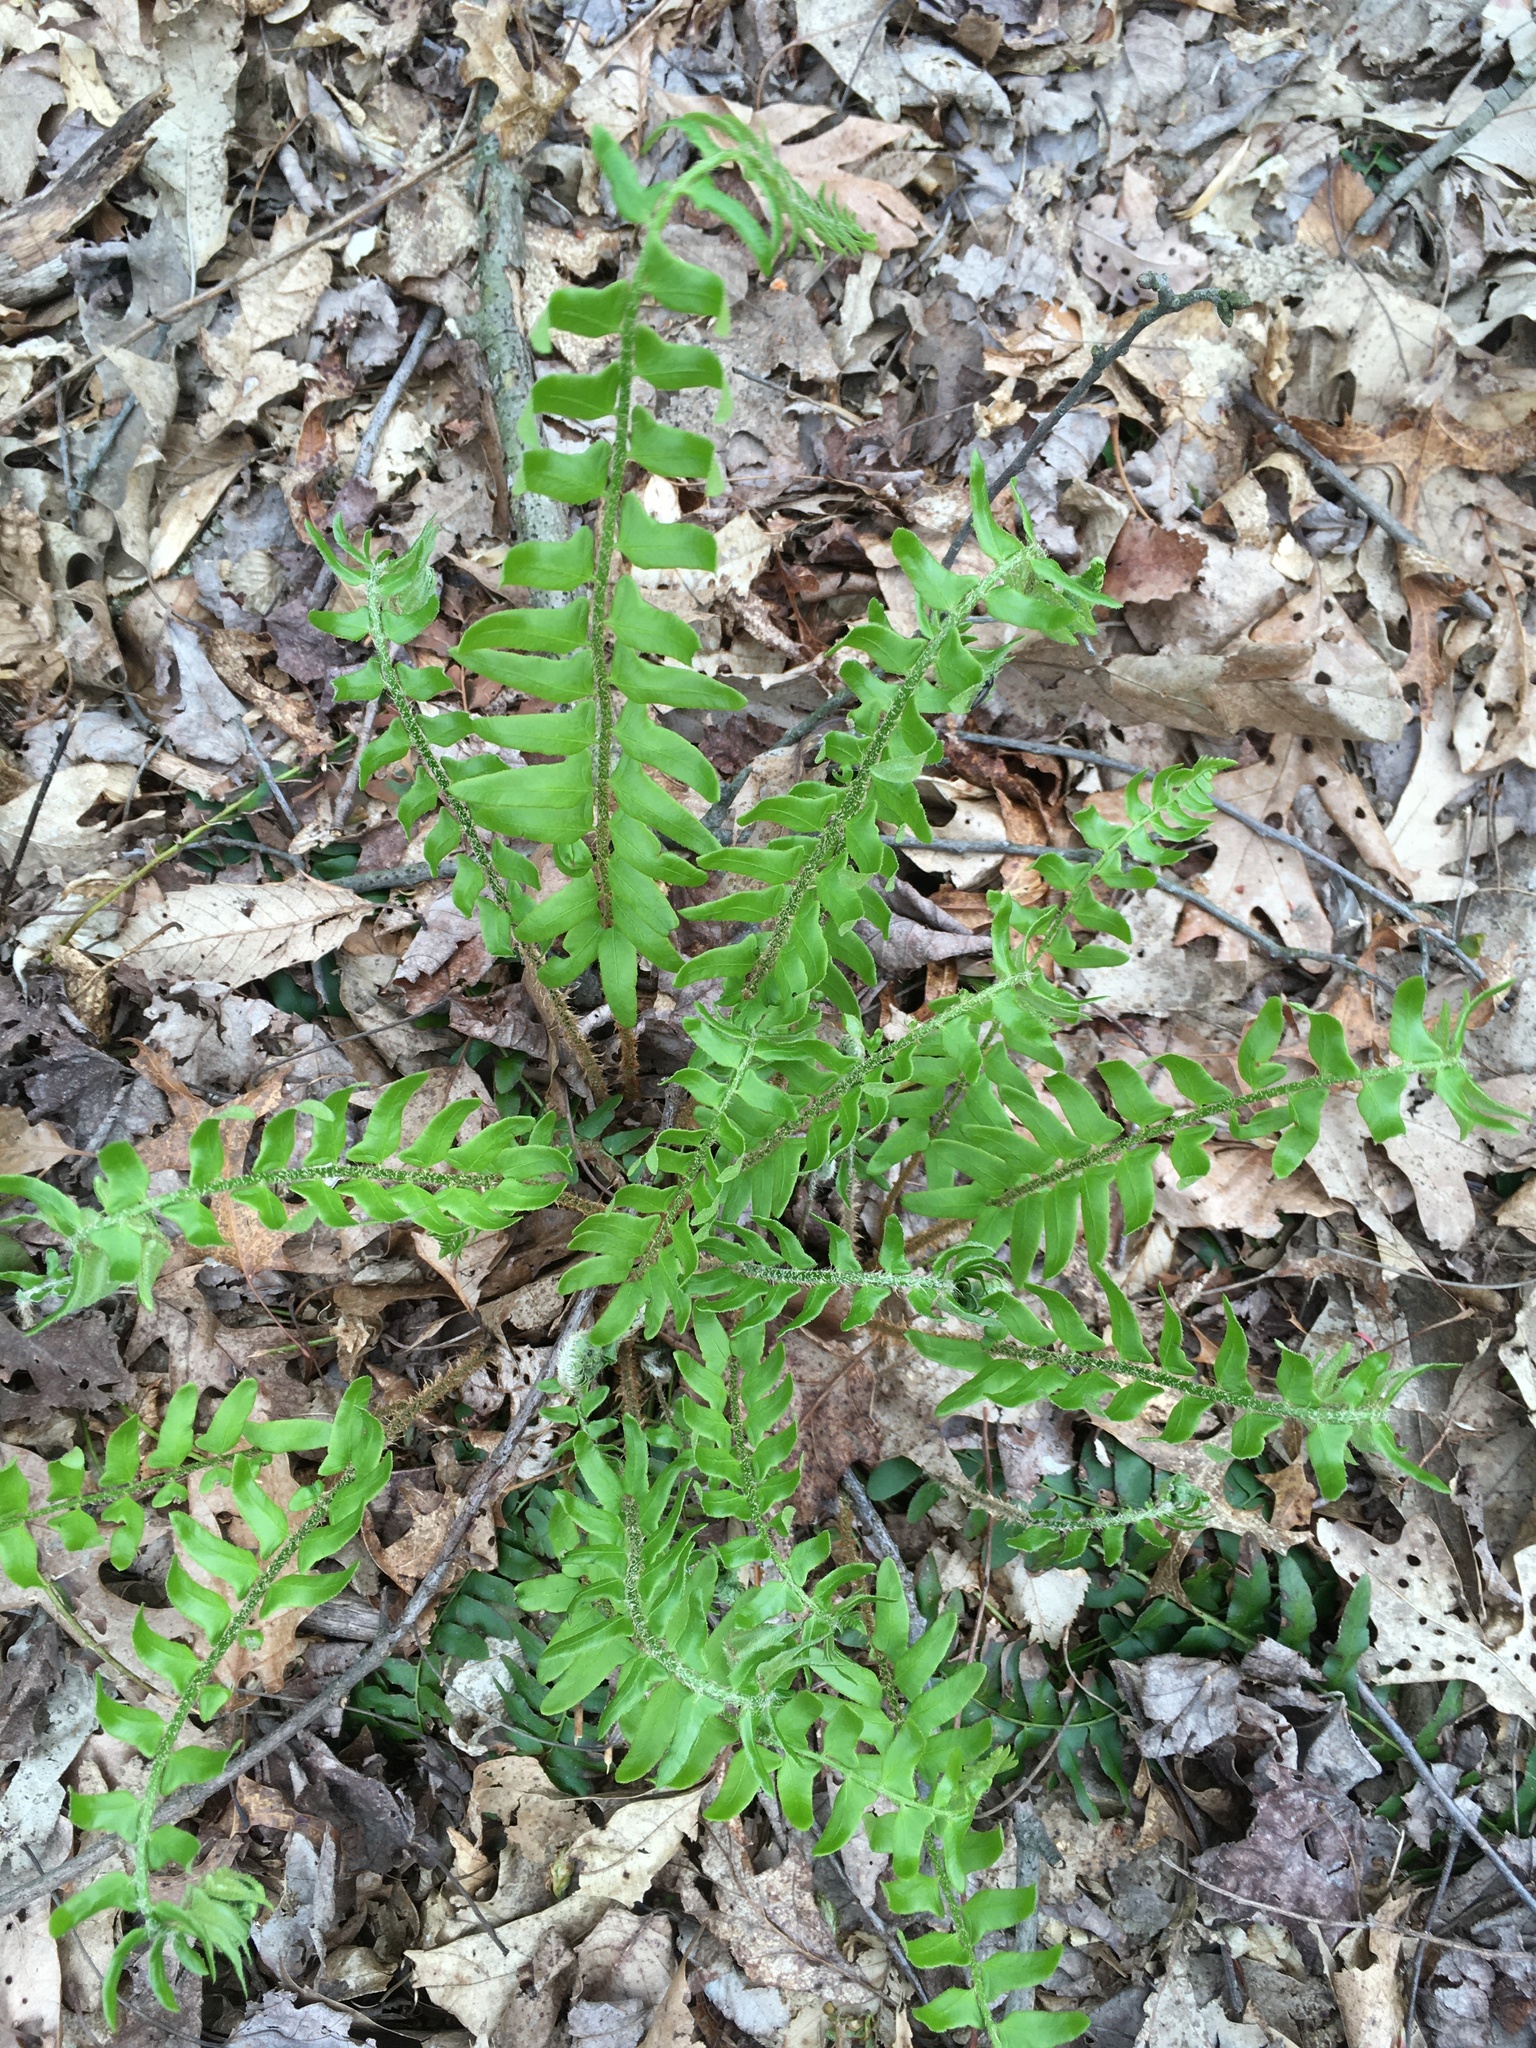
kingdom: Plantae
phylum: Tracheophyta
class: Polypodiopsida
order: Polypodiales
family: Dryopteridaceae
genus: Polystichum
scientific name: Polystichum acrostichoides
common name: Christmas fern
